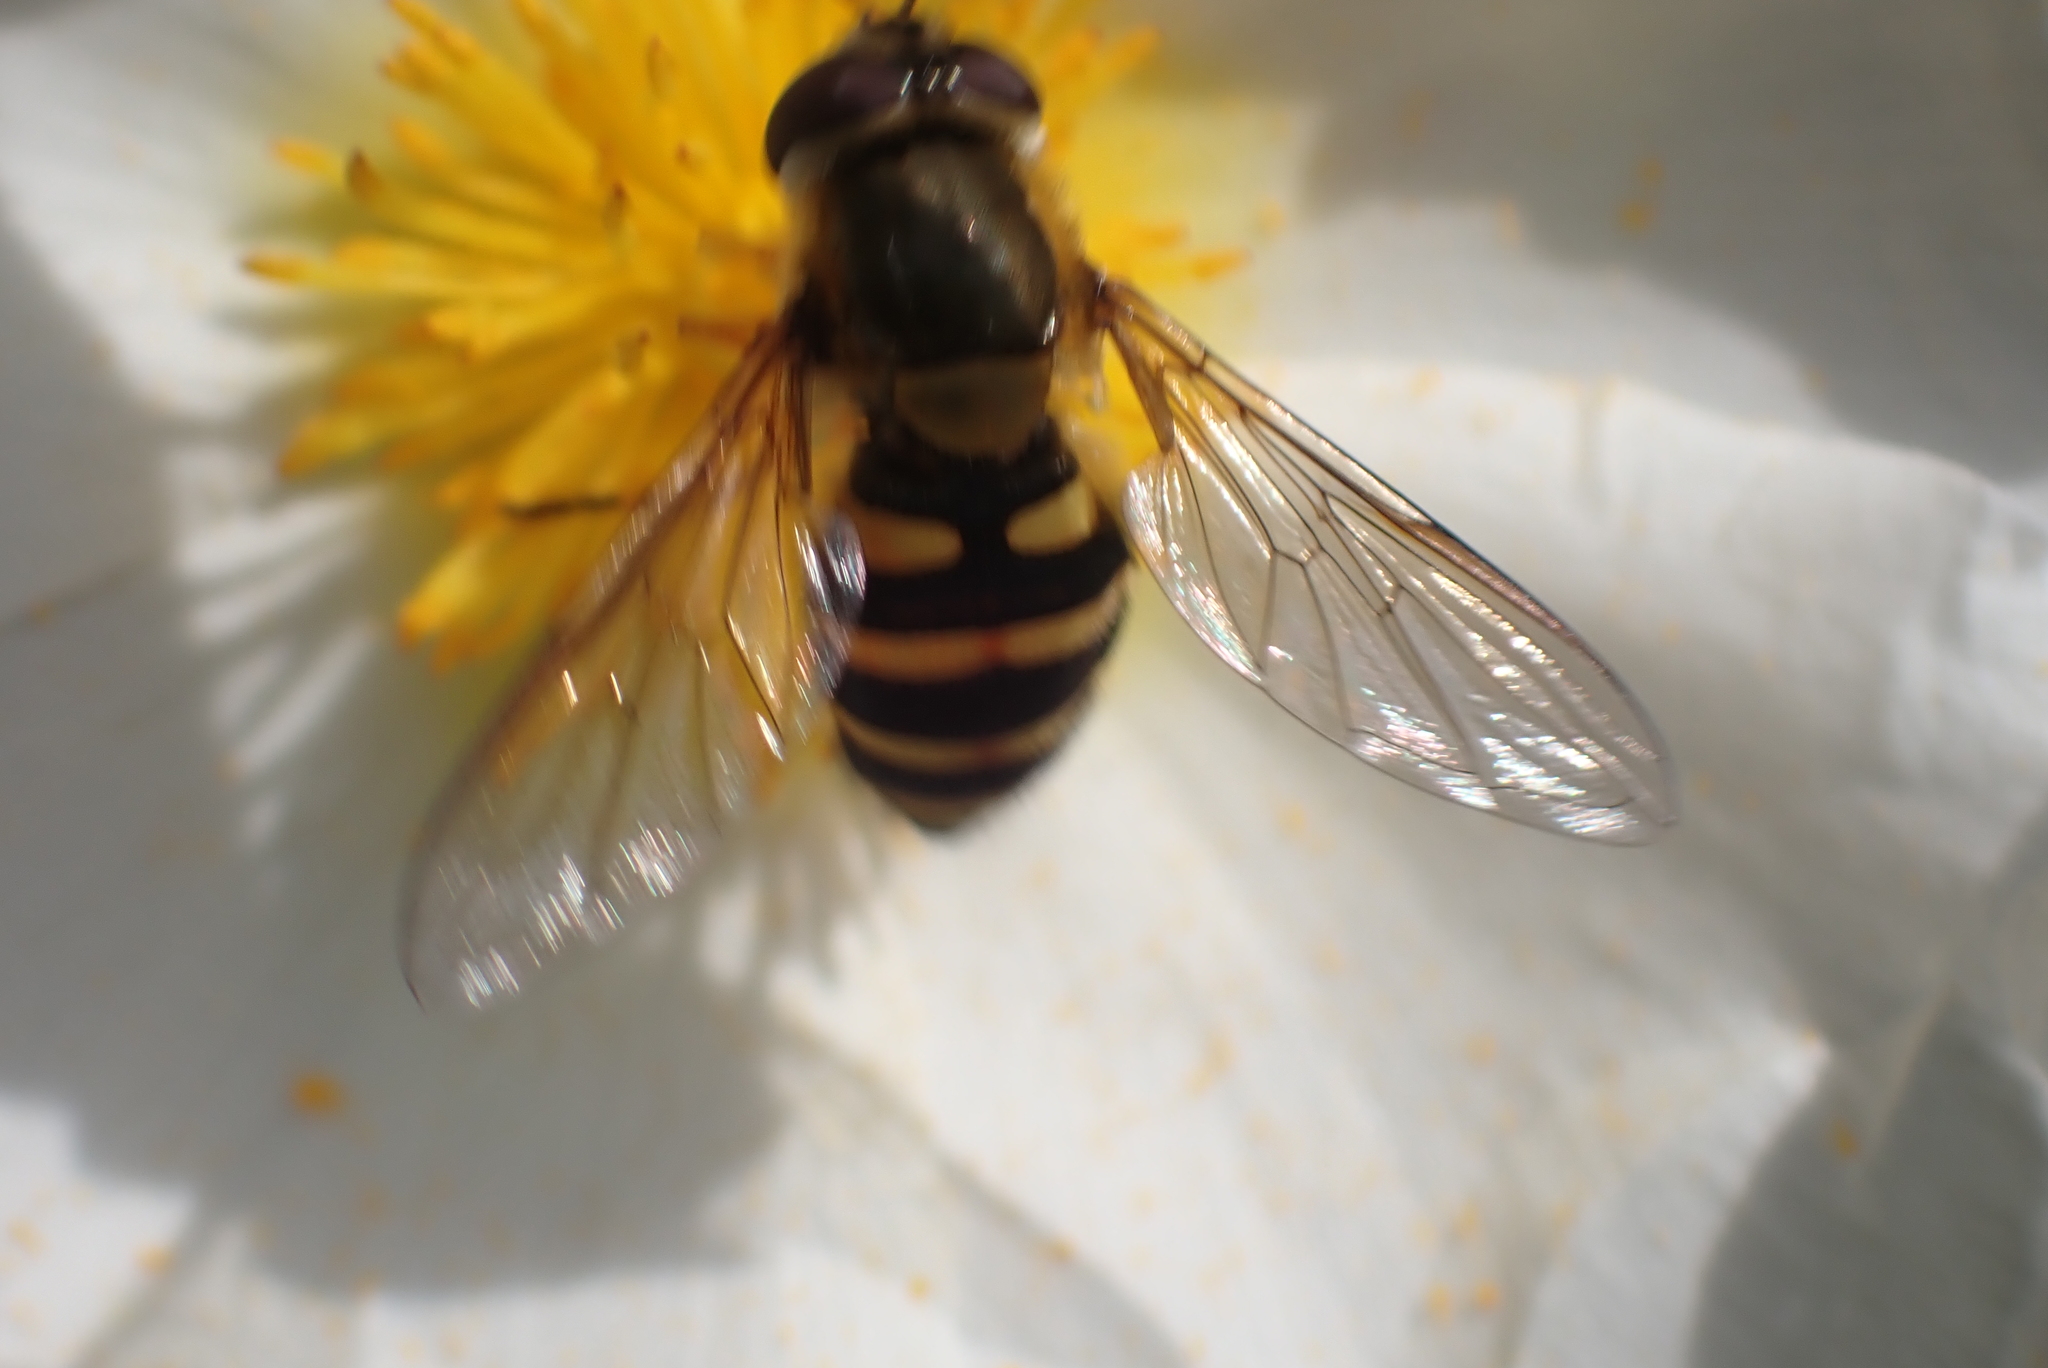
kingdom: Animalia
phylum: Arthropoda
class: Insecta
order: Diptera
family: Syrphidae
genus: Syrphus
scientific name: Syrphus
